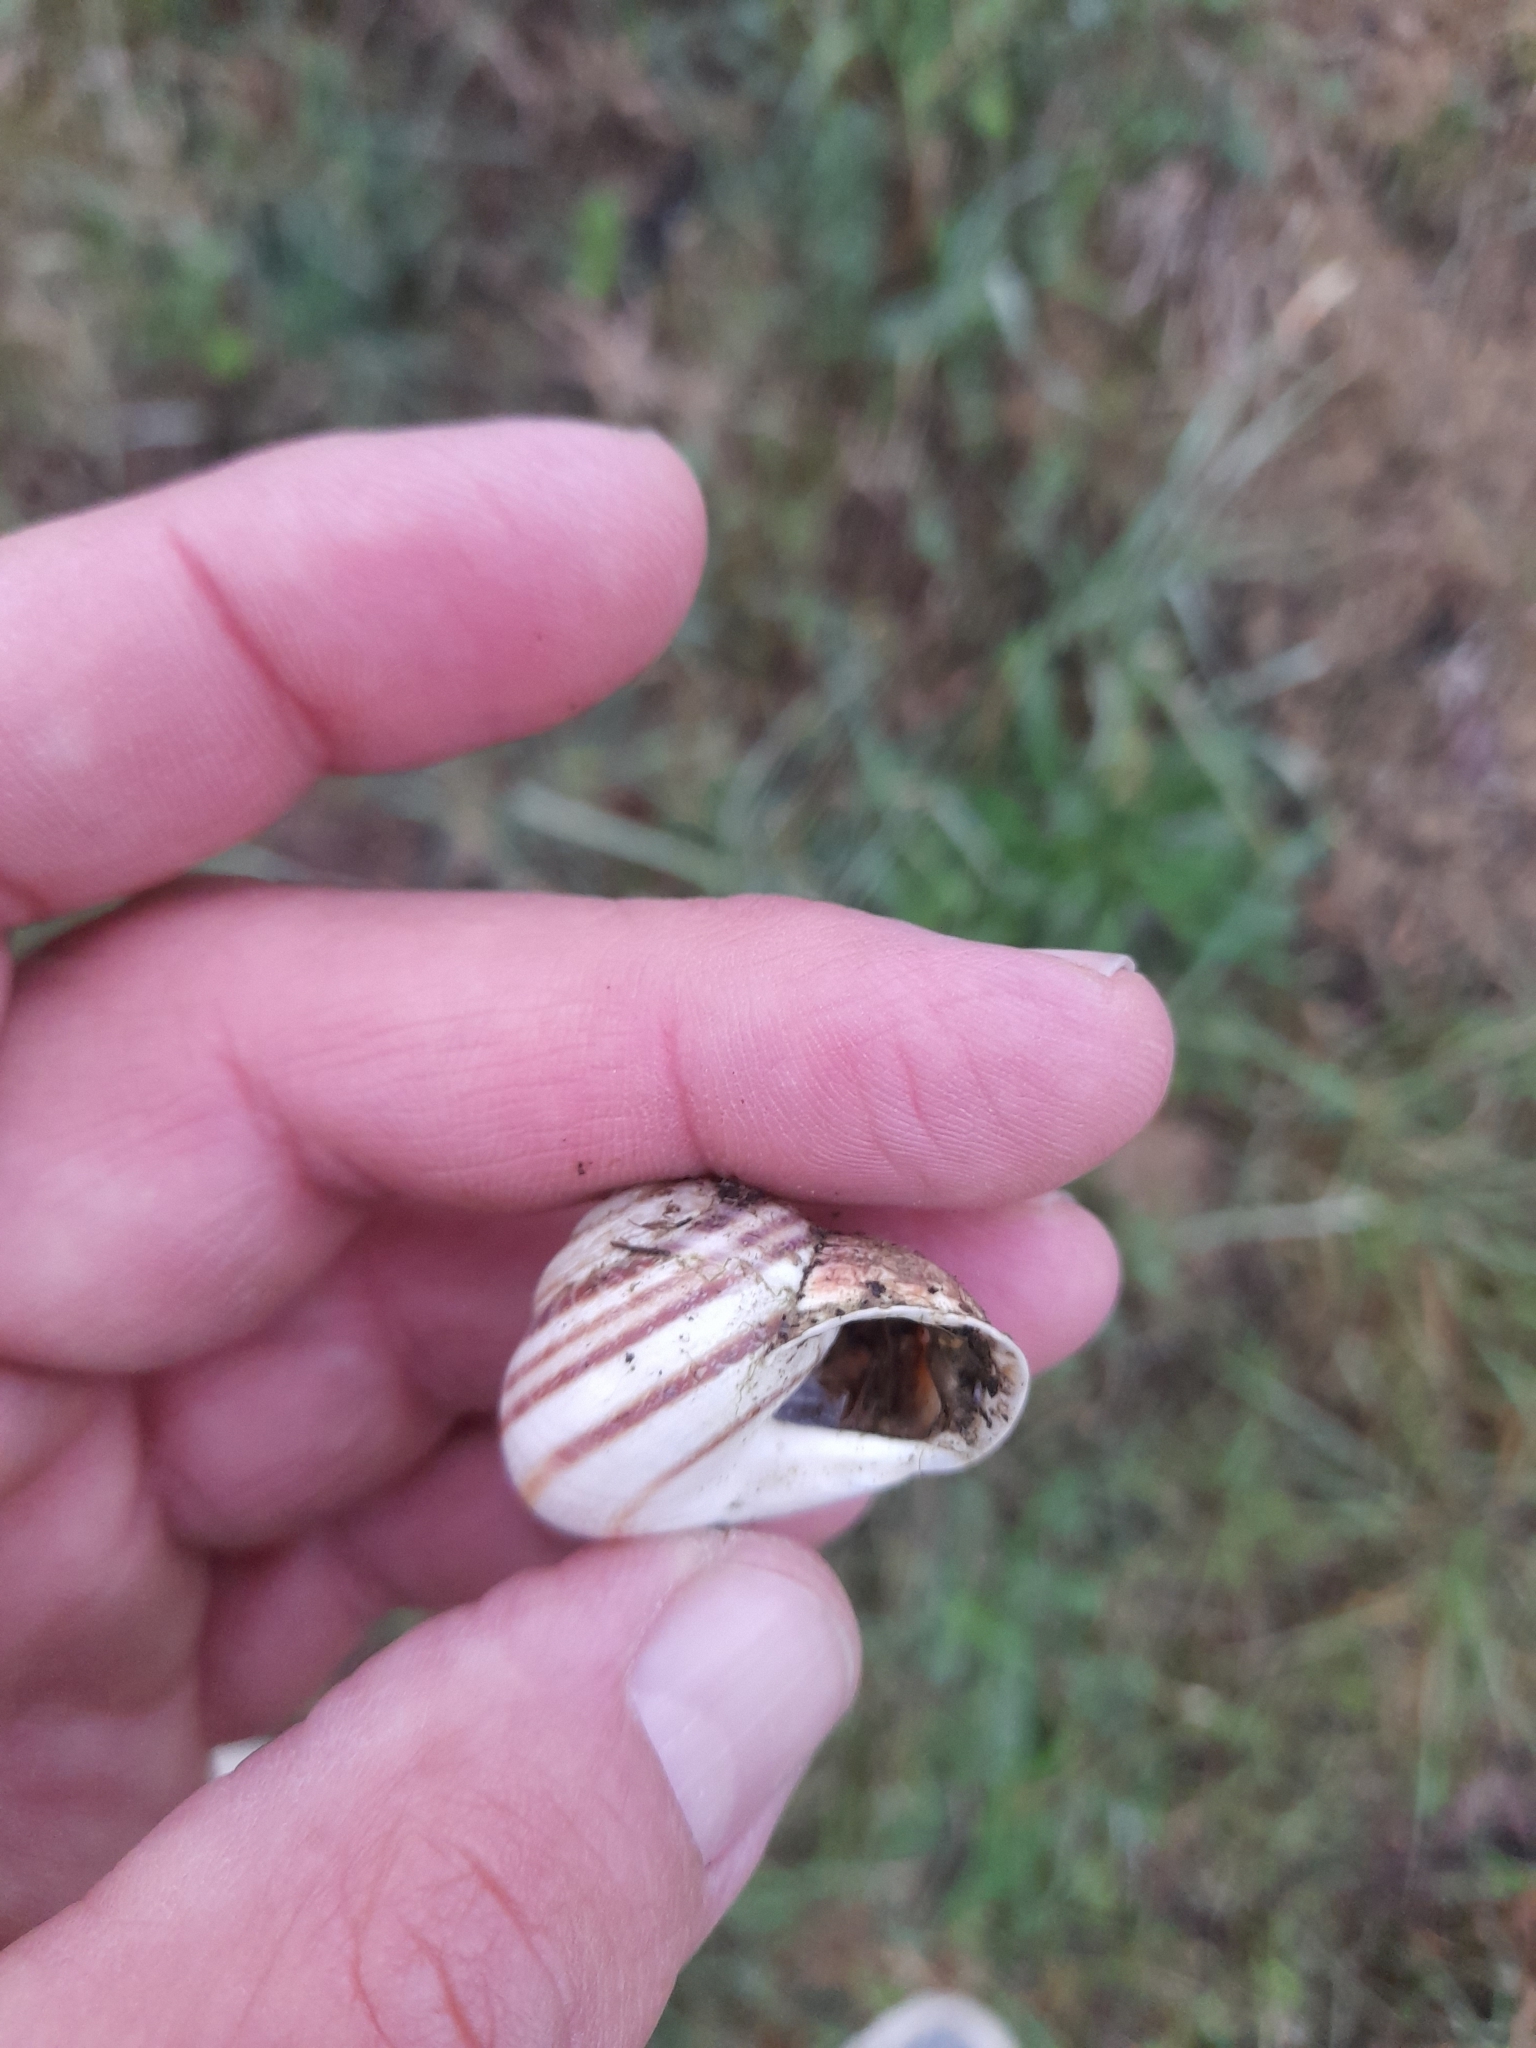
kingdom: Animalia
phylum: Mollusca
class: Gastropoda
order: Stylommatophora
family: Helicidae
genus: Eobania
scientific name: Eobania vermiculata
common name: Chocolateband snail
